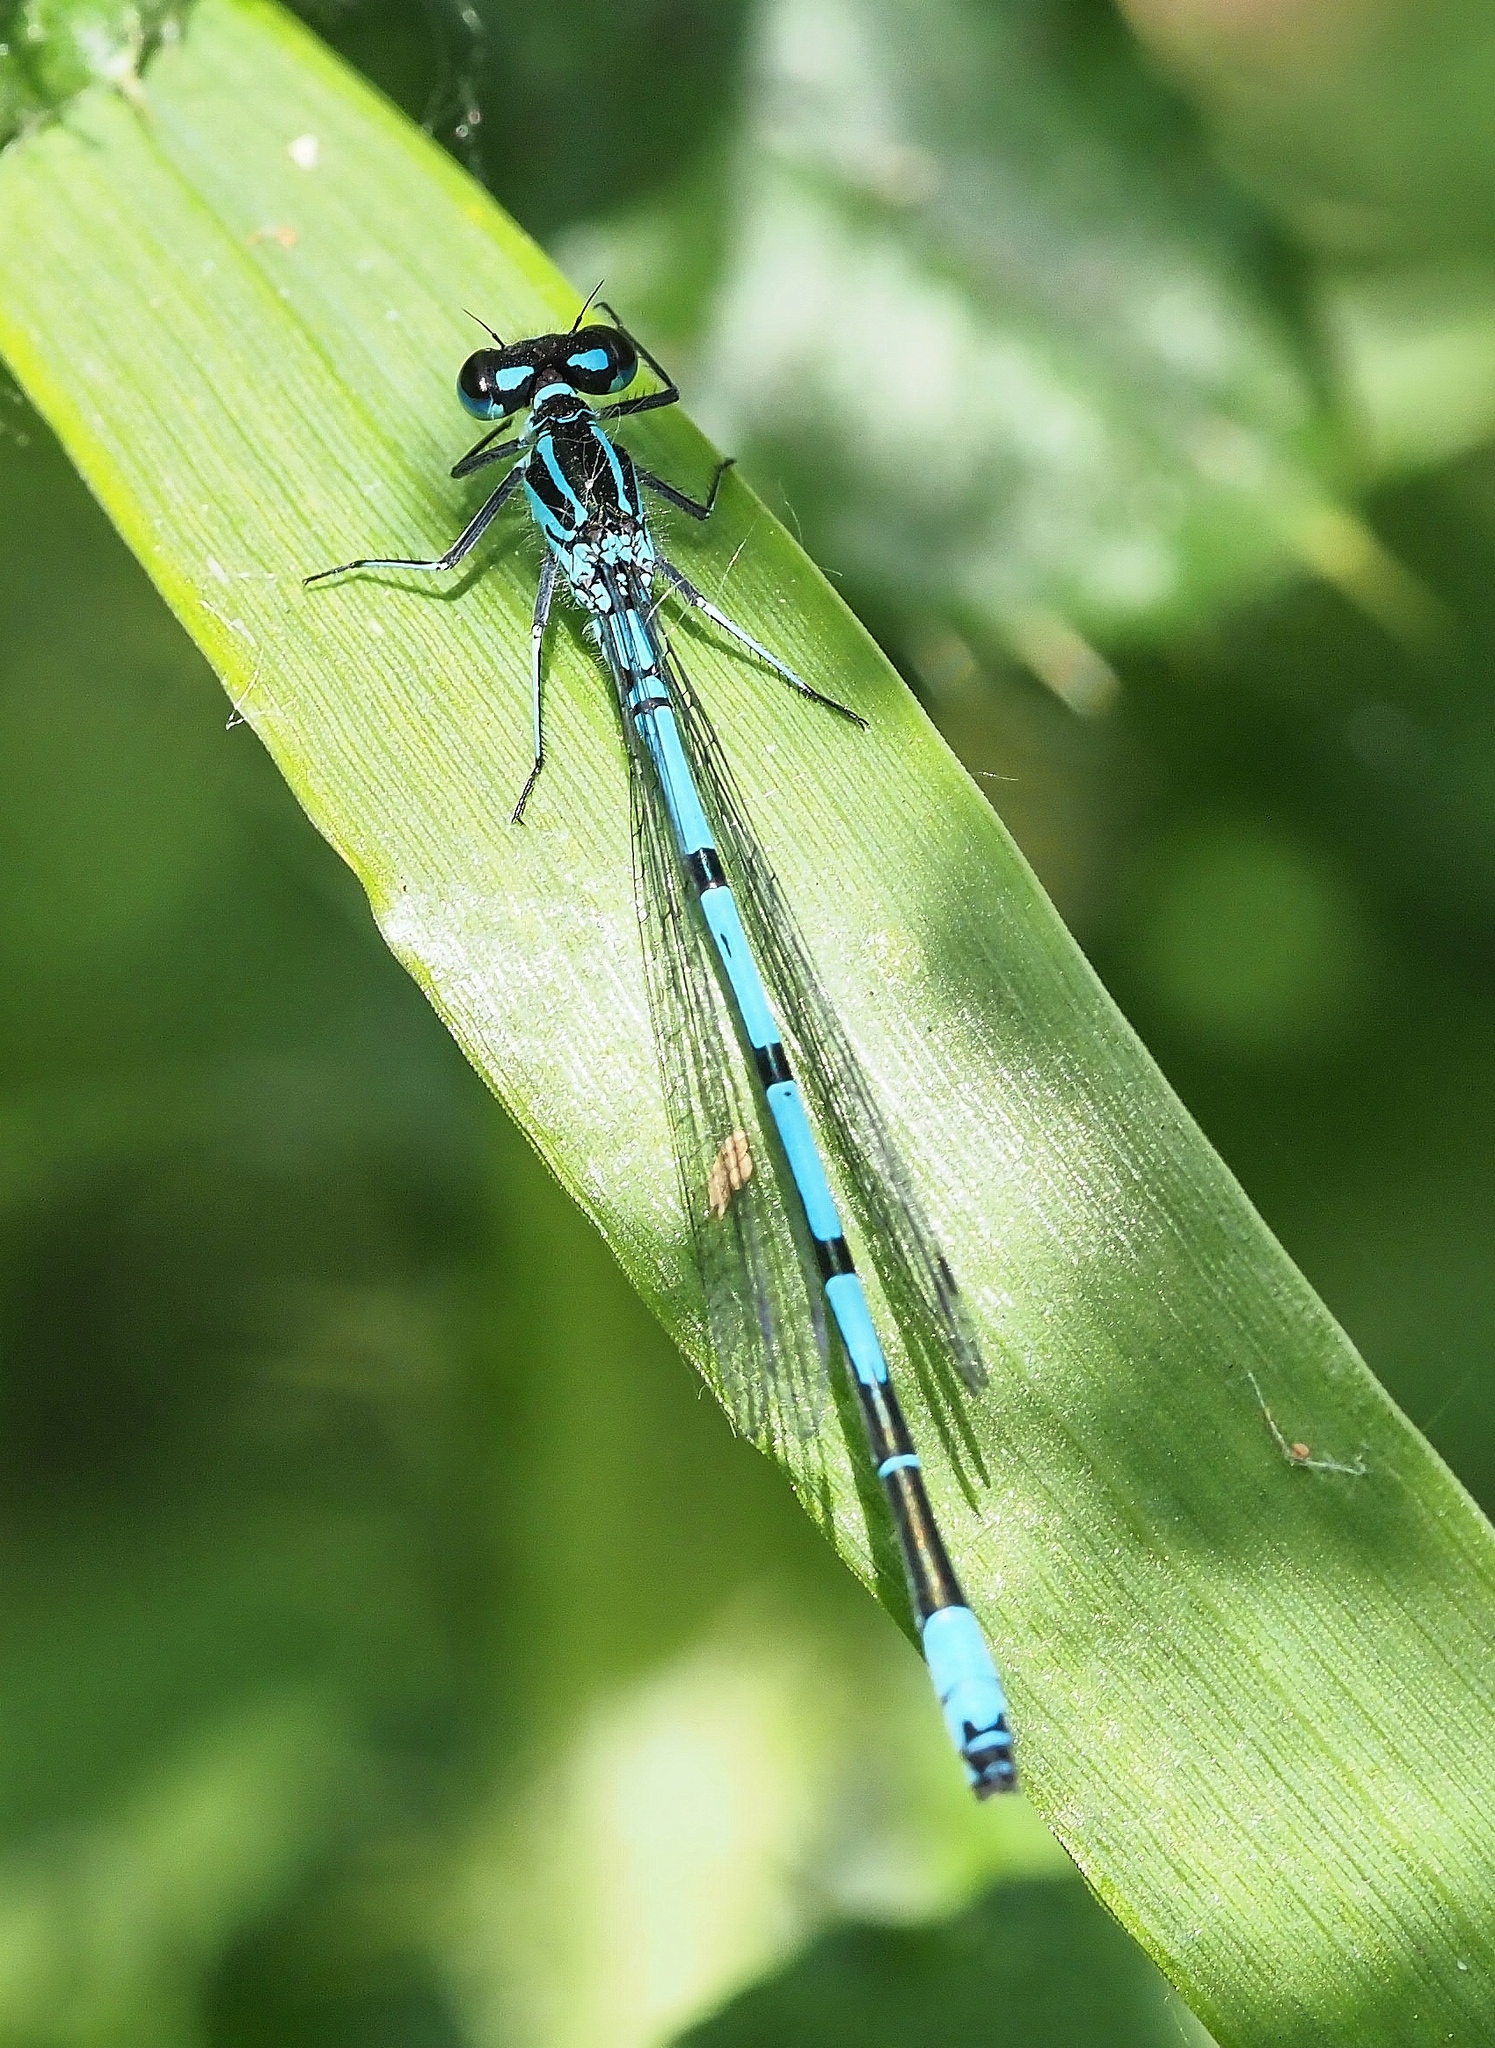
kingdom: Animalia
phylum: Arthropoda
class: Insecta
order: Odonata
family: Coenagrionidae
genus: Coenagrion
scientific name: Coenagrion puella
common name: Azure damselfly
